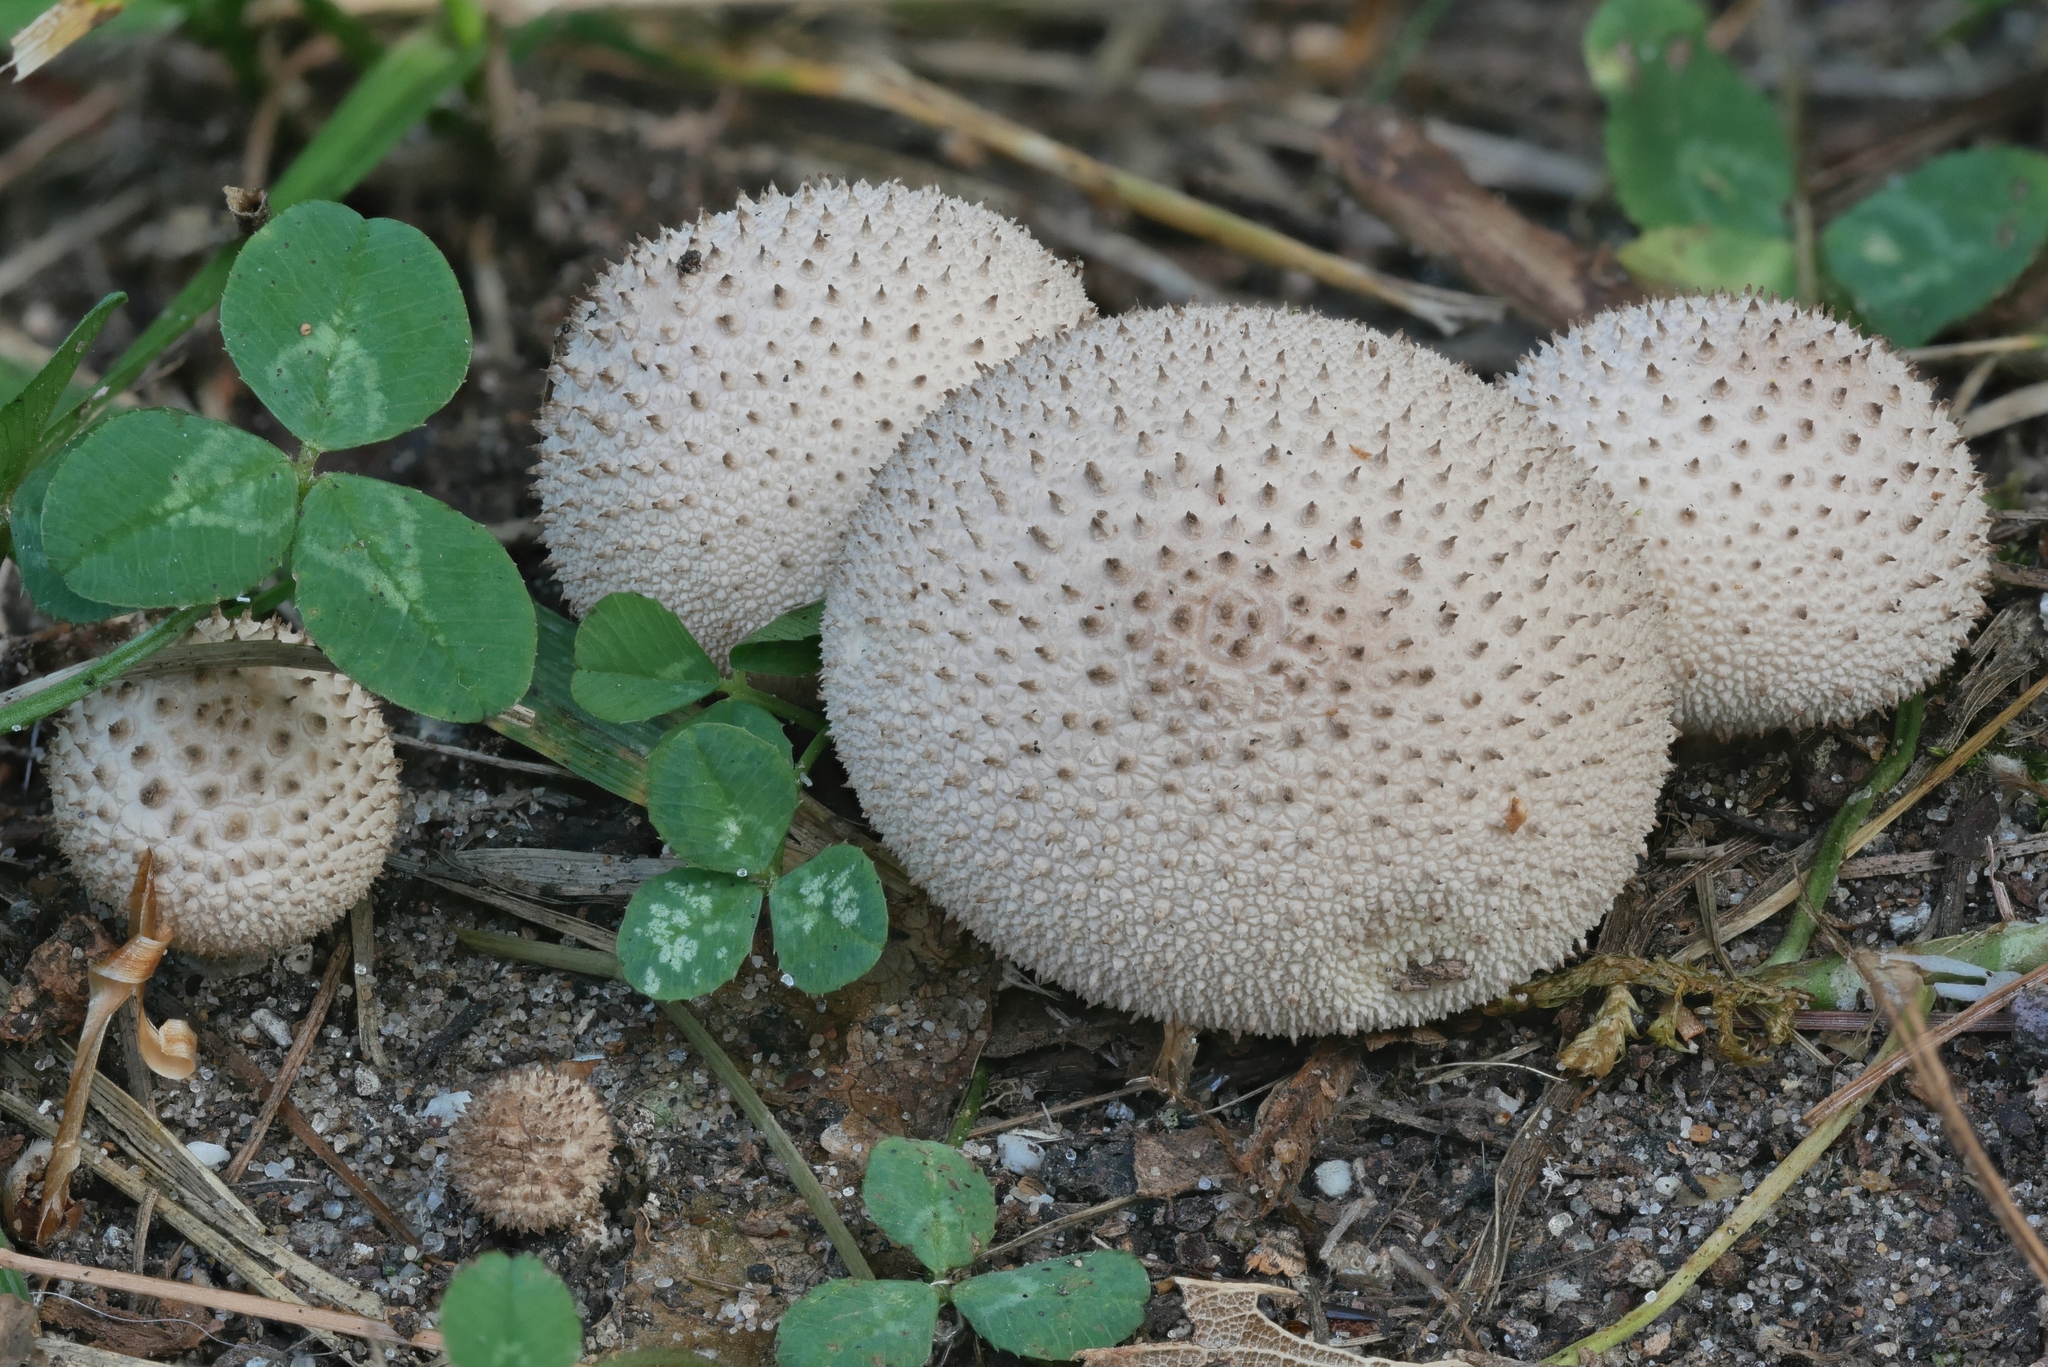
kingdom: Fungi
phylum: Basidiomycota
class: Agaricomycetes
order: Agaricales
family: Lycoperdaceae
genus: Lycoperdon
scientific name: Lycoperdon perlatum
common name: Common puffball
